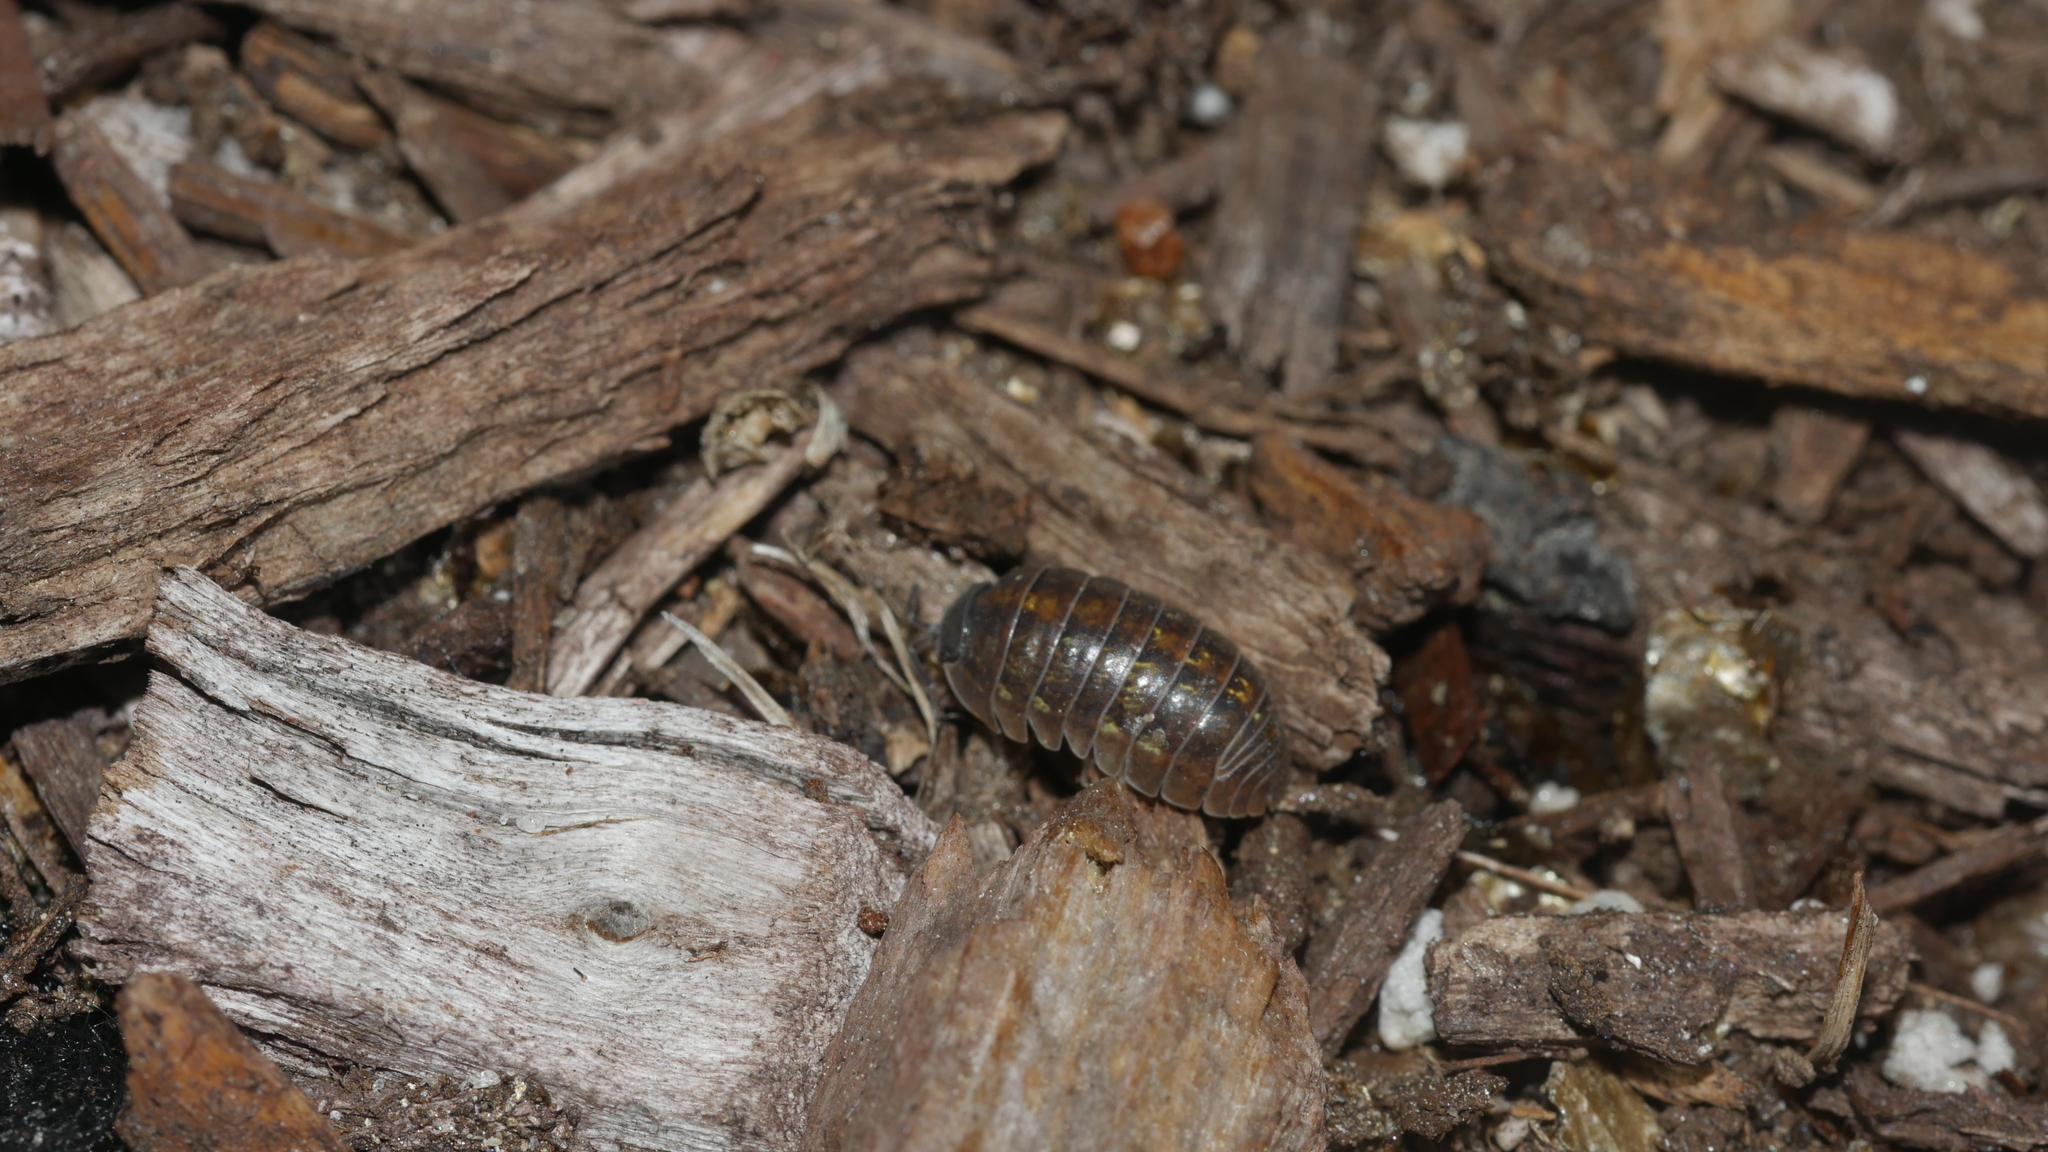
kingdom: Animalia
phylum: Arthropoda
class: Malacostraca
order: Isopoda
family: Armadillidiidae
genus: Armadillidium
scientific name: Armadillidium vulgare
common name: Common pill woodlouse
